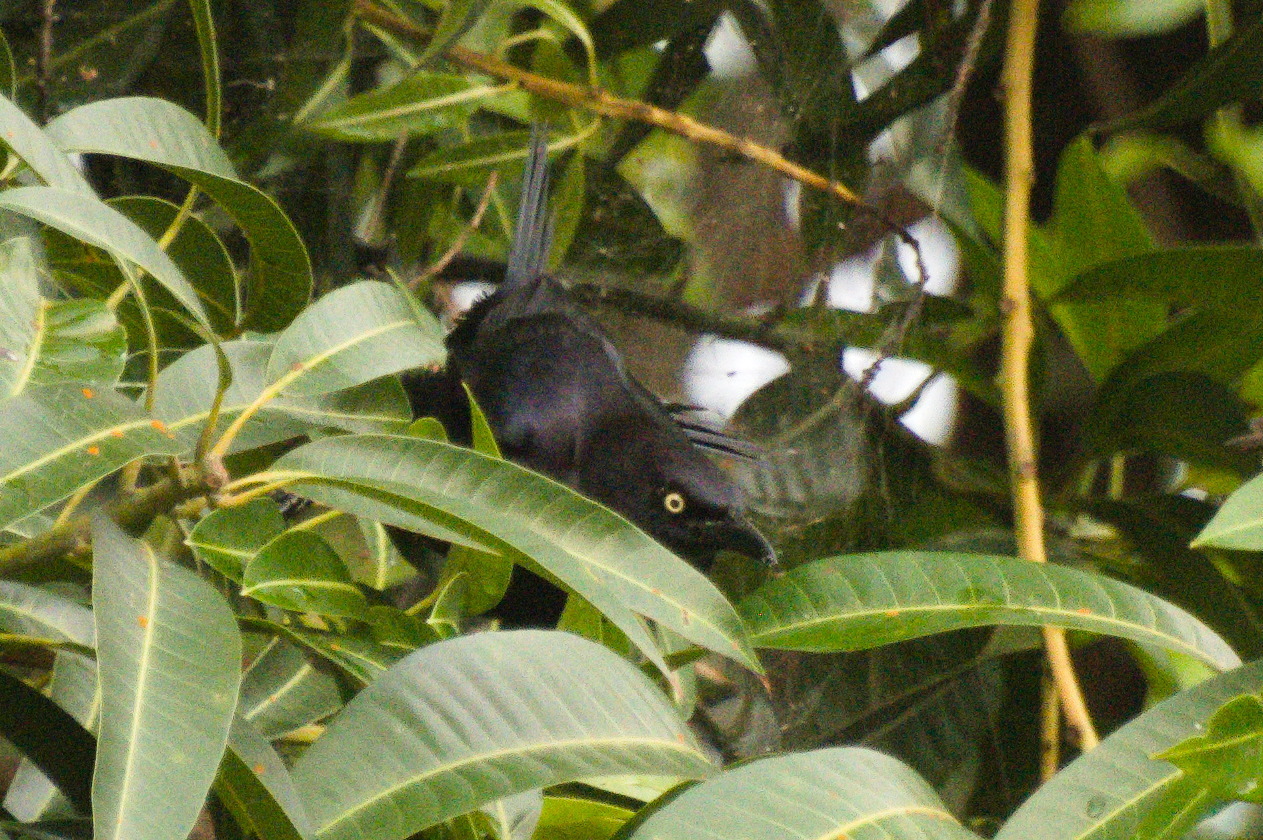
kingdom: Animalia
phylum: Chordata
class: Aves
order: Passeriformes
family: Icteridae
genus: Quiscalus
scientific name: Quiscalus mexicanus
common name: Great-tailed grackle
